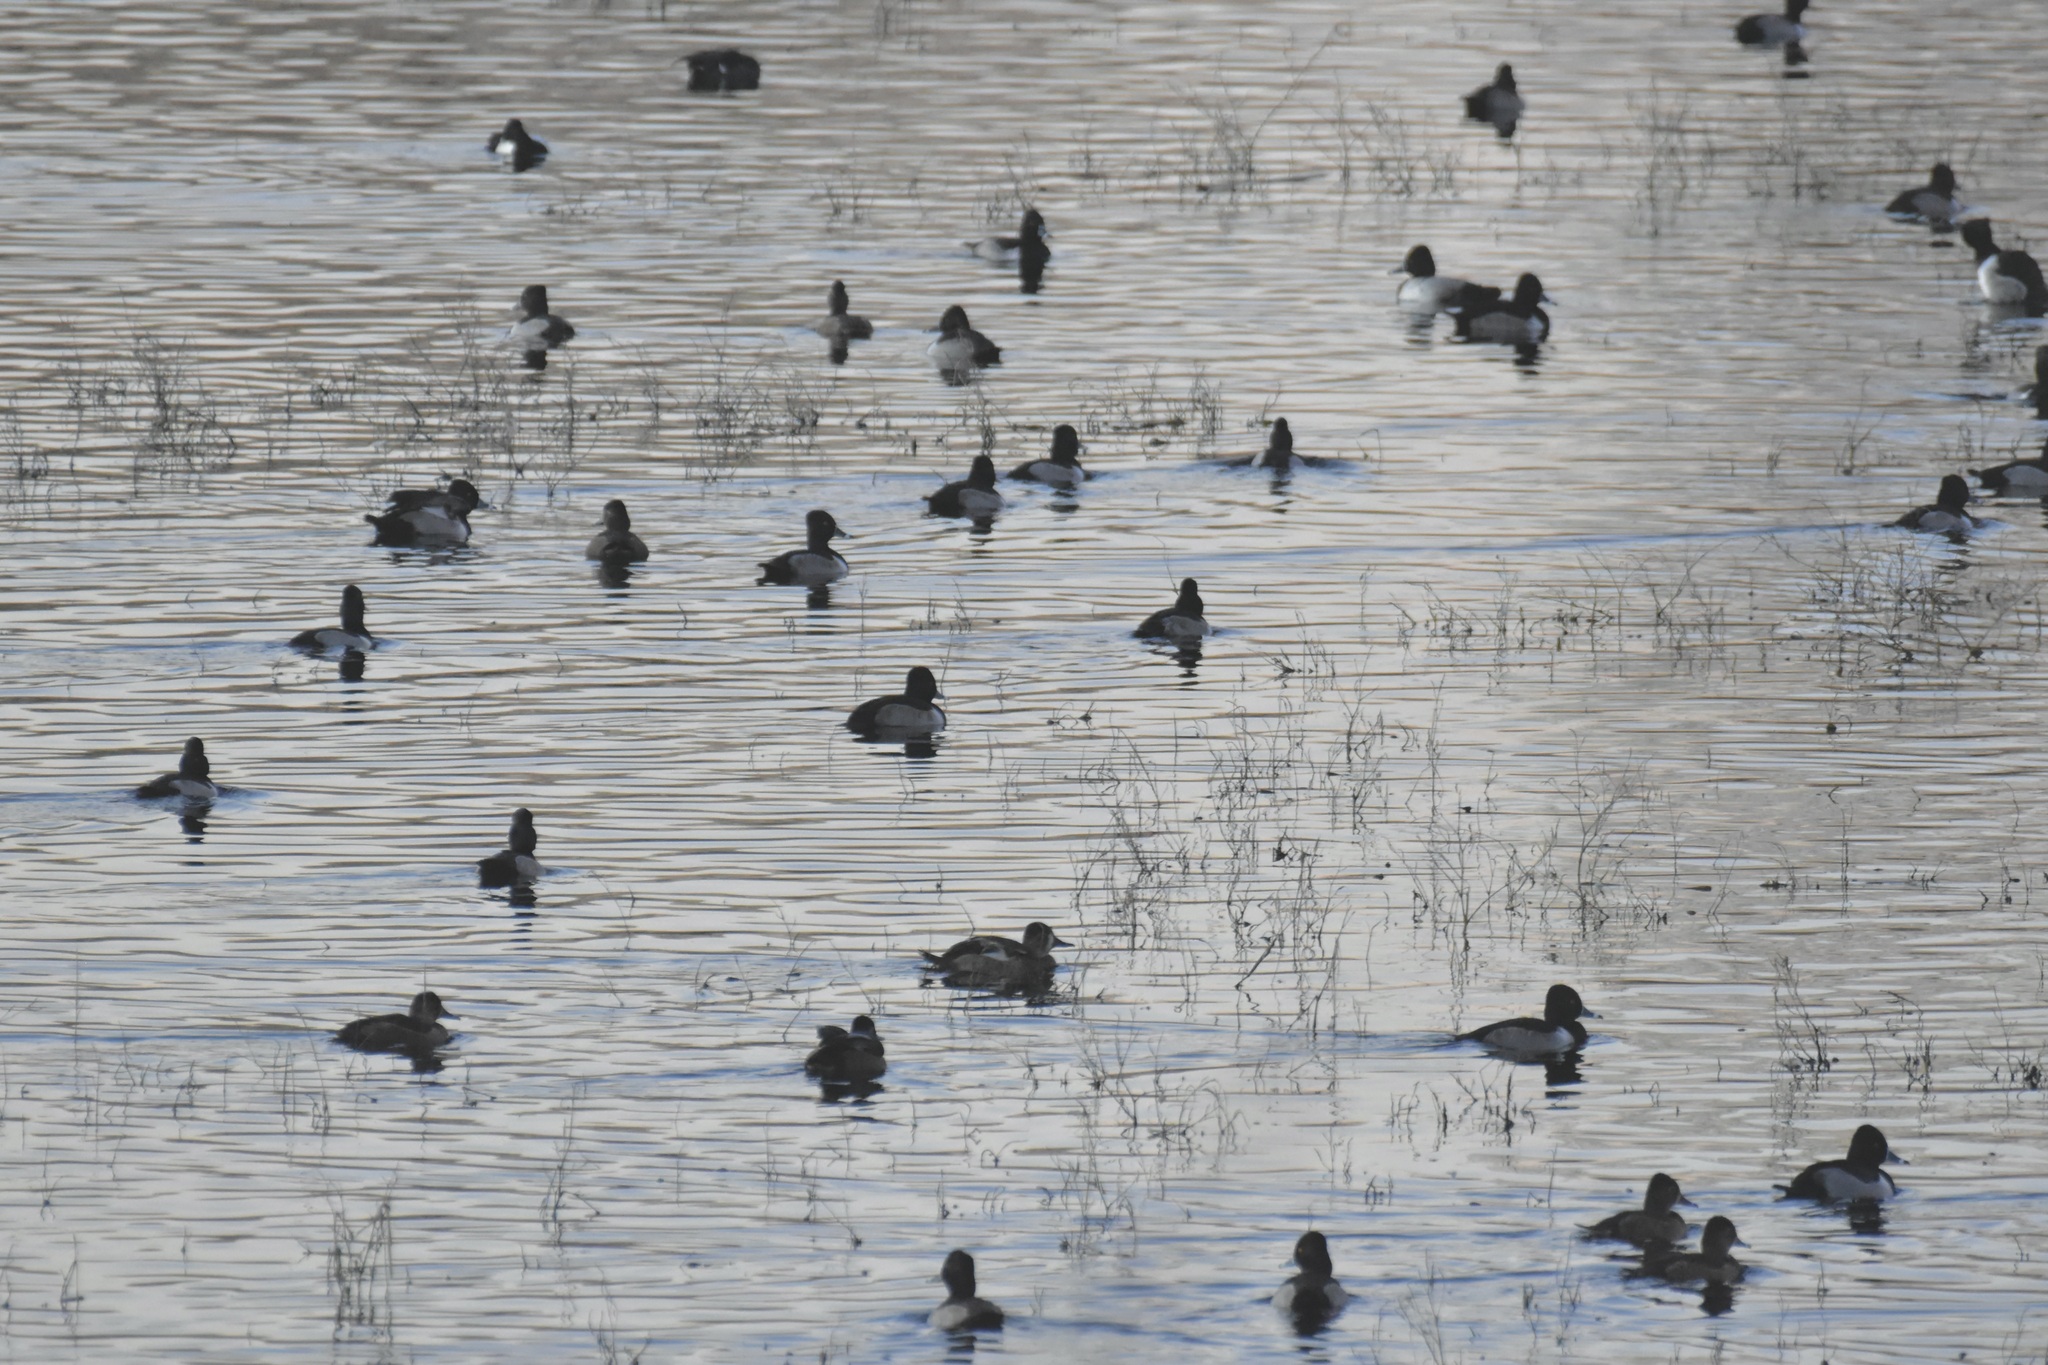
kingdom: Animalia
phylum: Chordata
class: Aves
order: Anseriformes
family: Anatidae
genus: Aythya
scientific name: Aythya collaris
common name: Ring-necked duck
